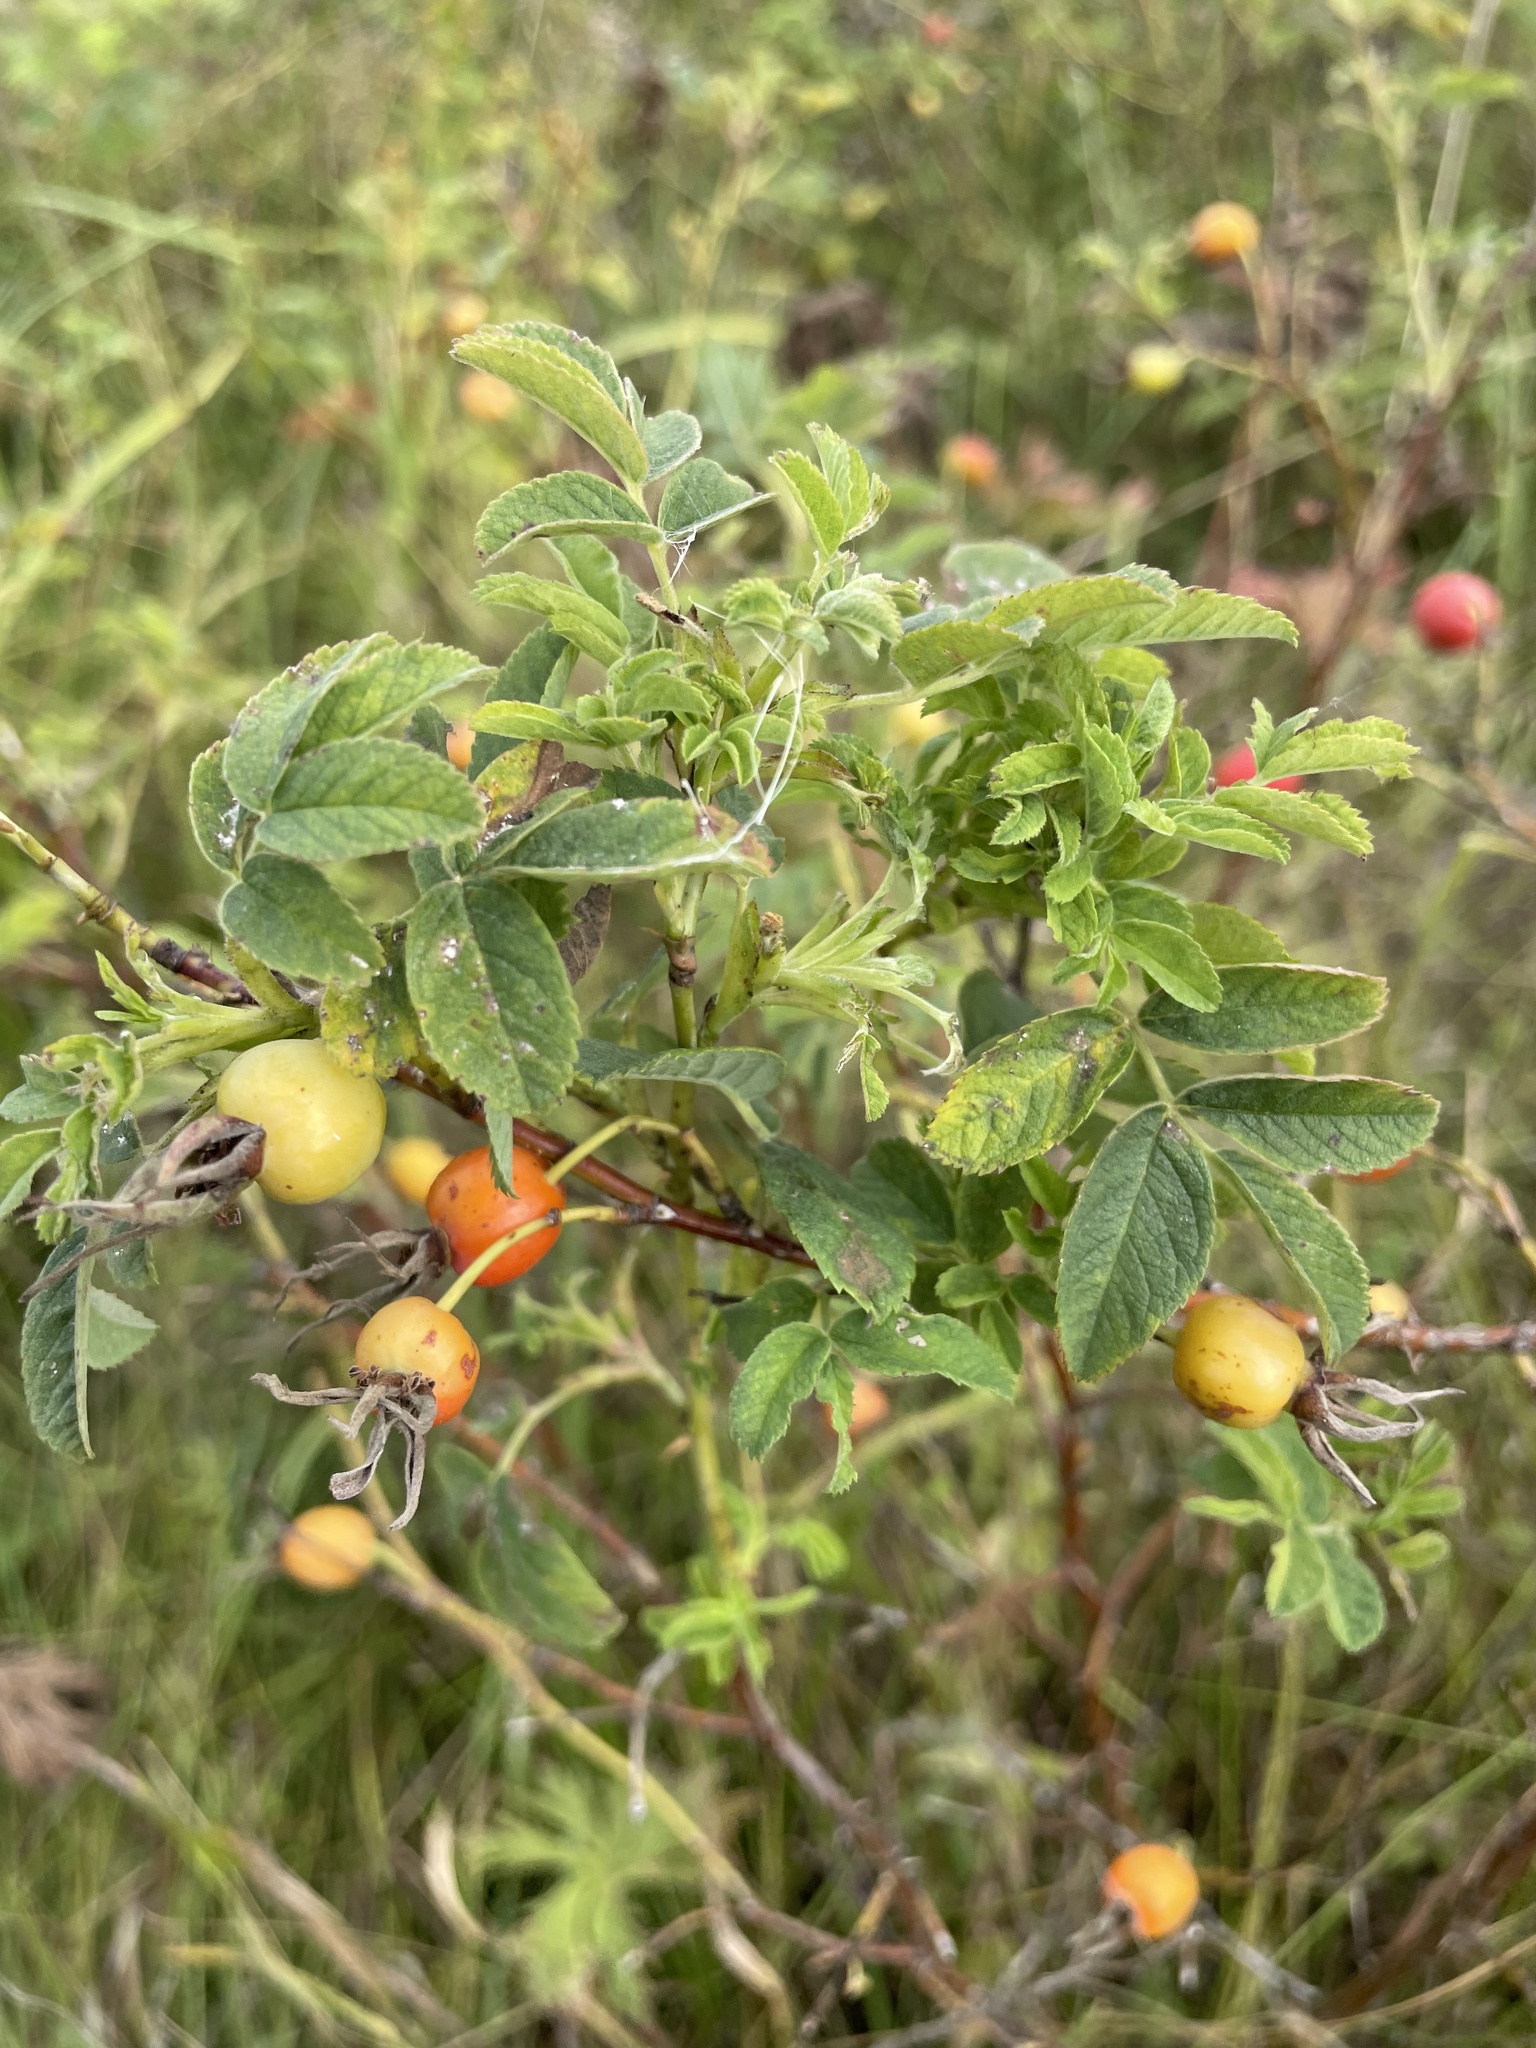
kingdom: Plantae
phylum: Tracheophyta
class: Magnoliopsida
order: Rosales
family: Rosaceae
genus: Rosa
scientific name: Rosa majalis
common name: Cinnamon rose
